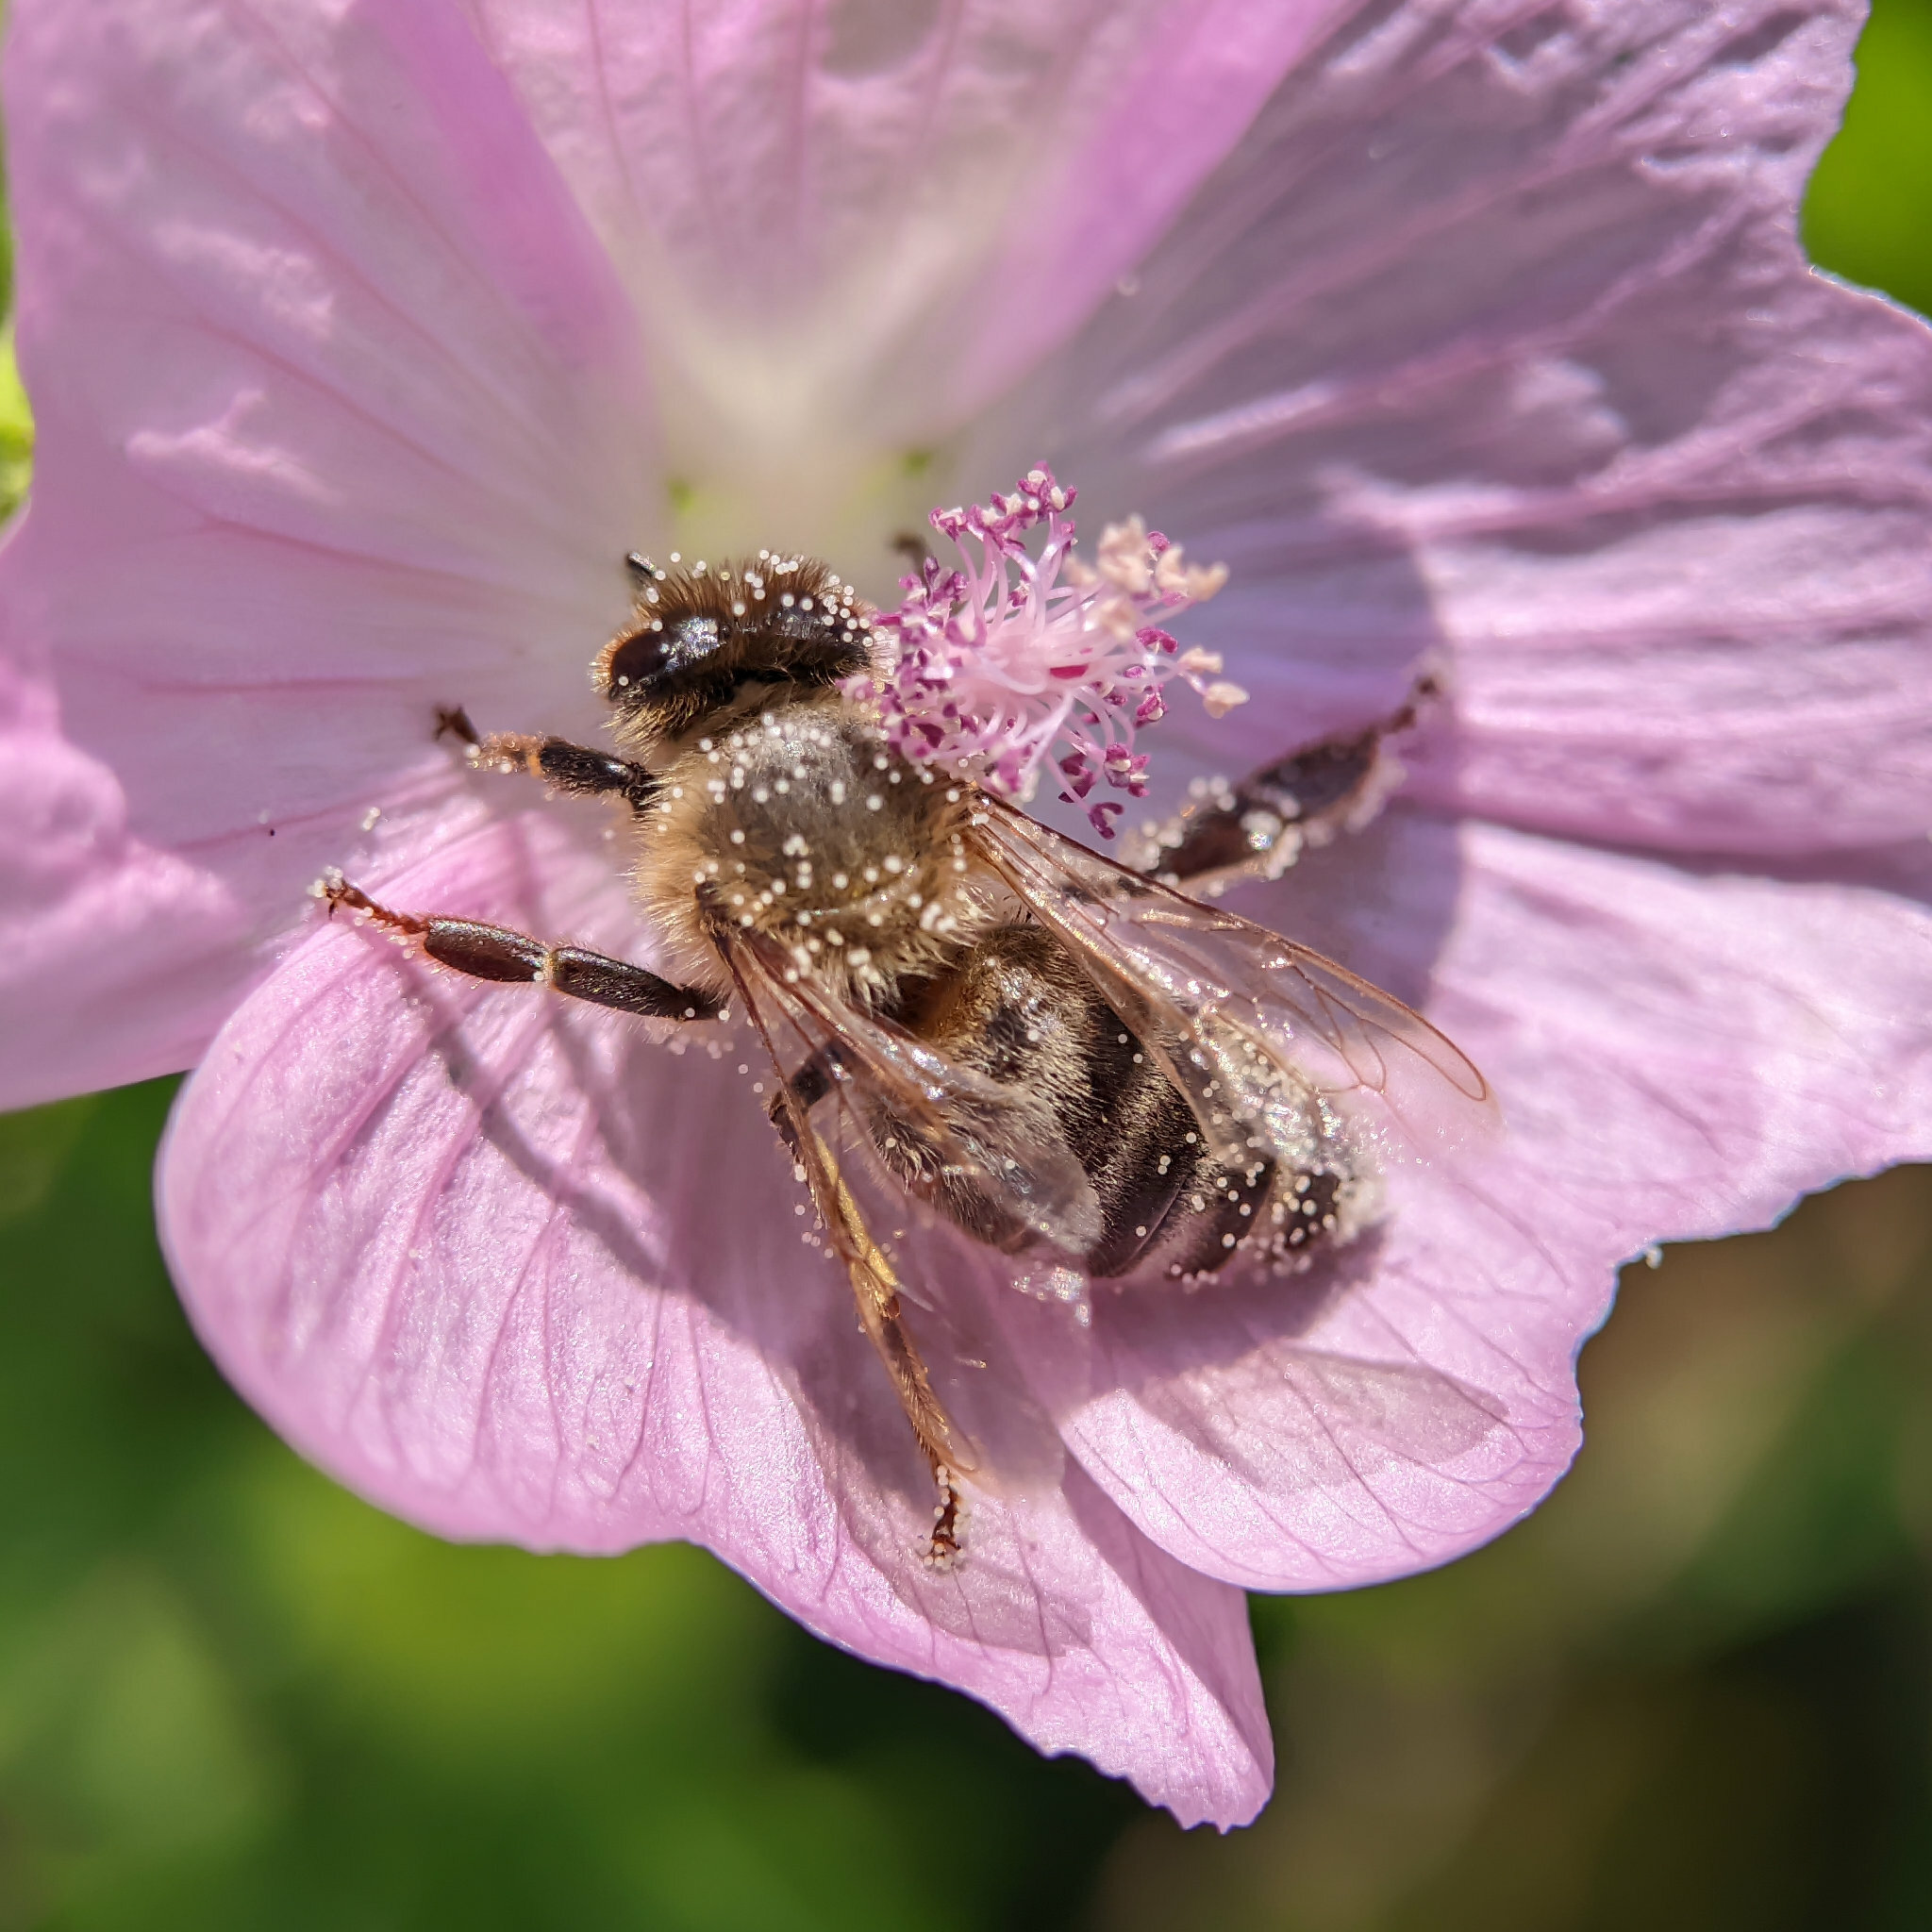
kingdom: Animalia
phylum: Arthropoda
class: Insecta
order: Hymenoptera
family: Apidae
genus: Apis
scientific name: Apis mellifera
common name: Honey bee
